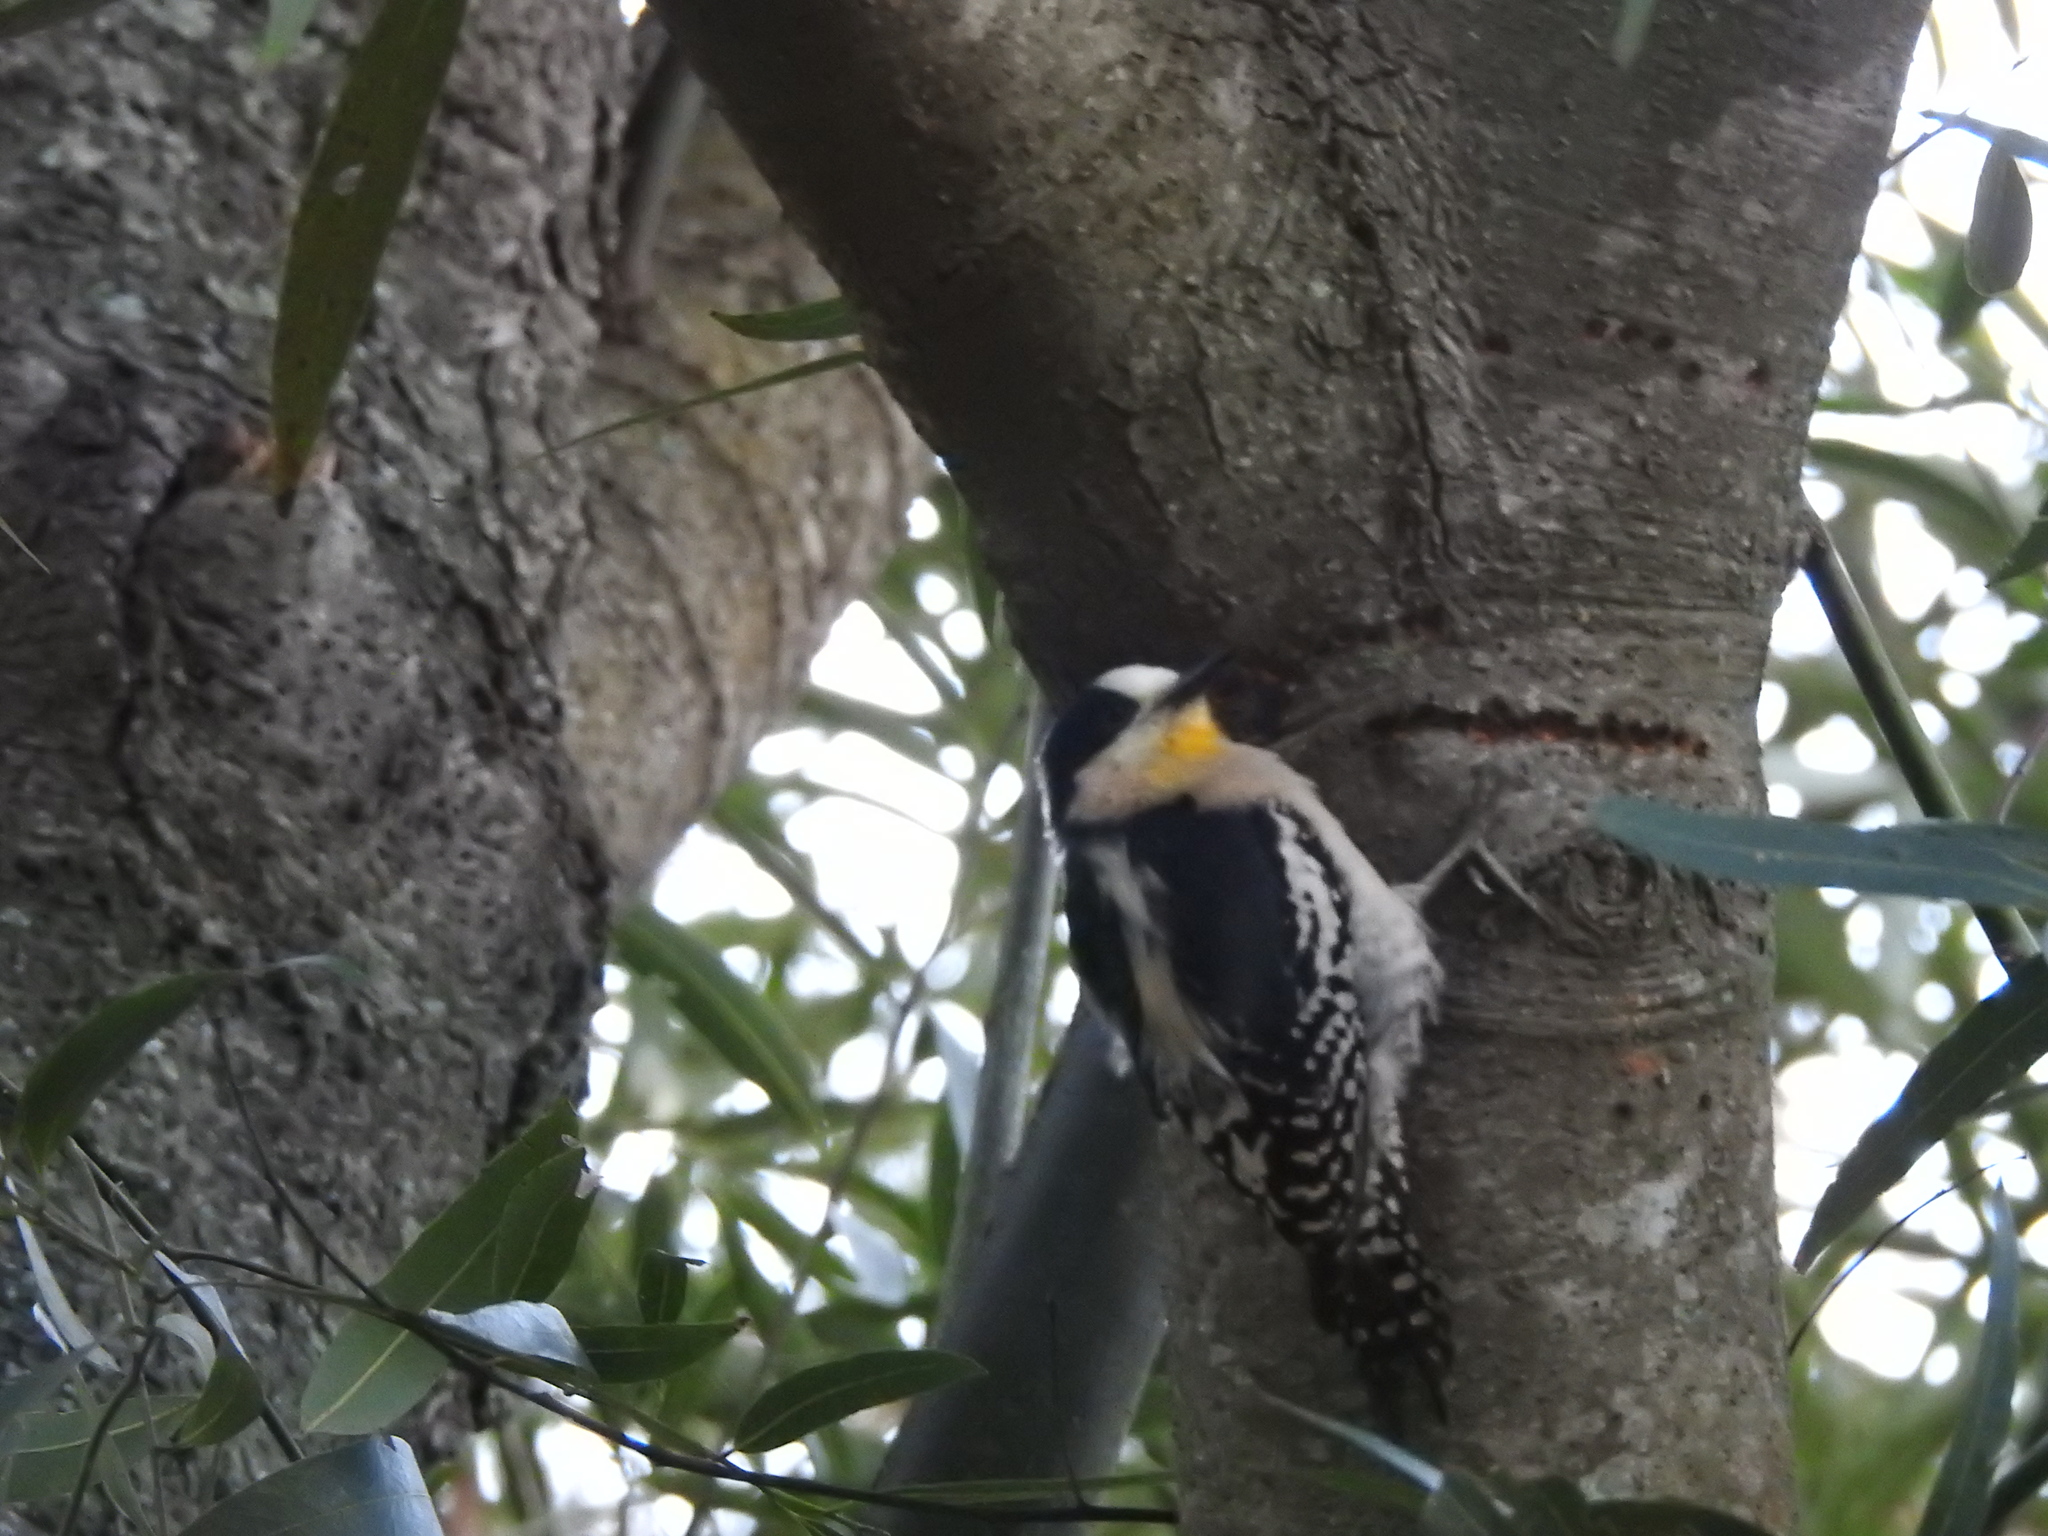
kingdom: Animalia
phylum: Chordata
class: Aves
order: Piciformes
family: Picidae
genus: Melanerpes
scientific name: Melanerpes cactorum
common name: White-fronted woodpecker
